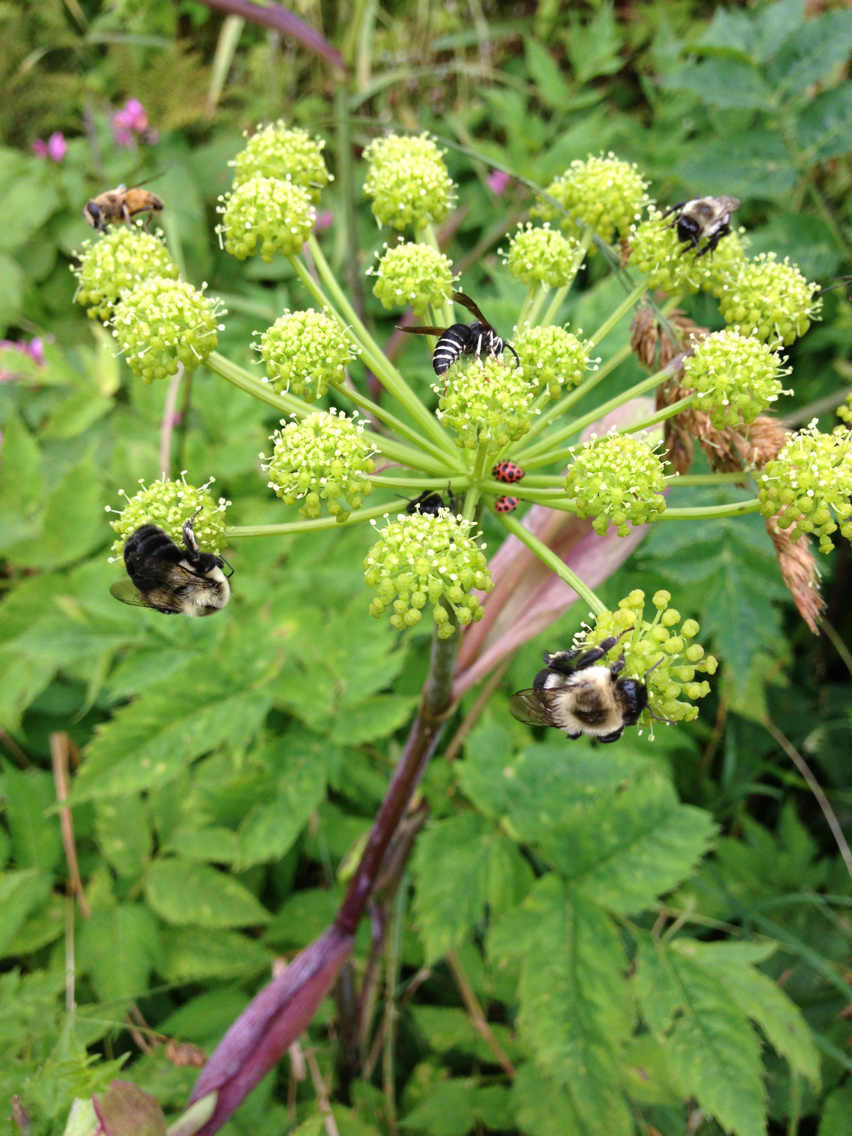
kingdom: Animalia
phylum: Arthropoda
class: Insecta
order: Hymenoptera
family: Apidae
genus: Bombus
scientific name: Bombus impatiens
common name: Common eastern bumble bee
